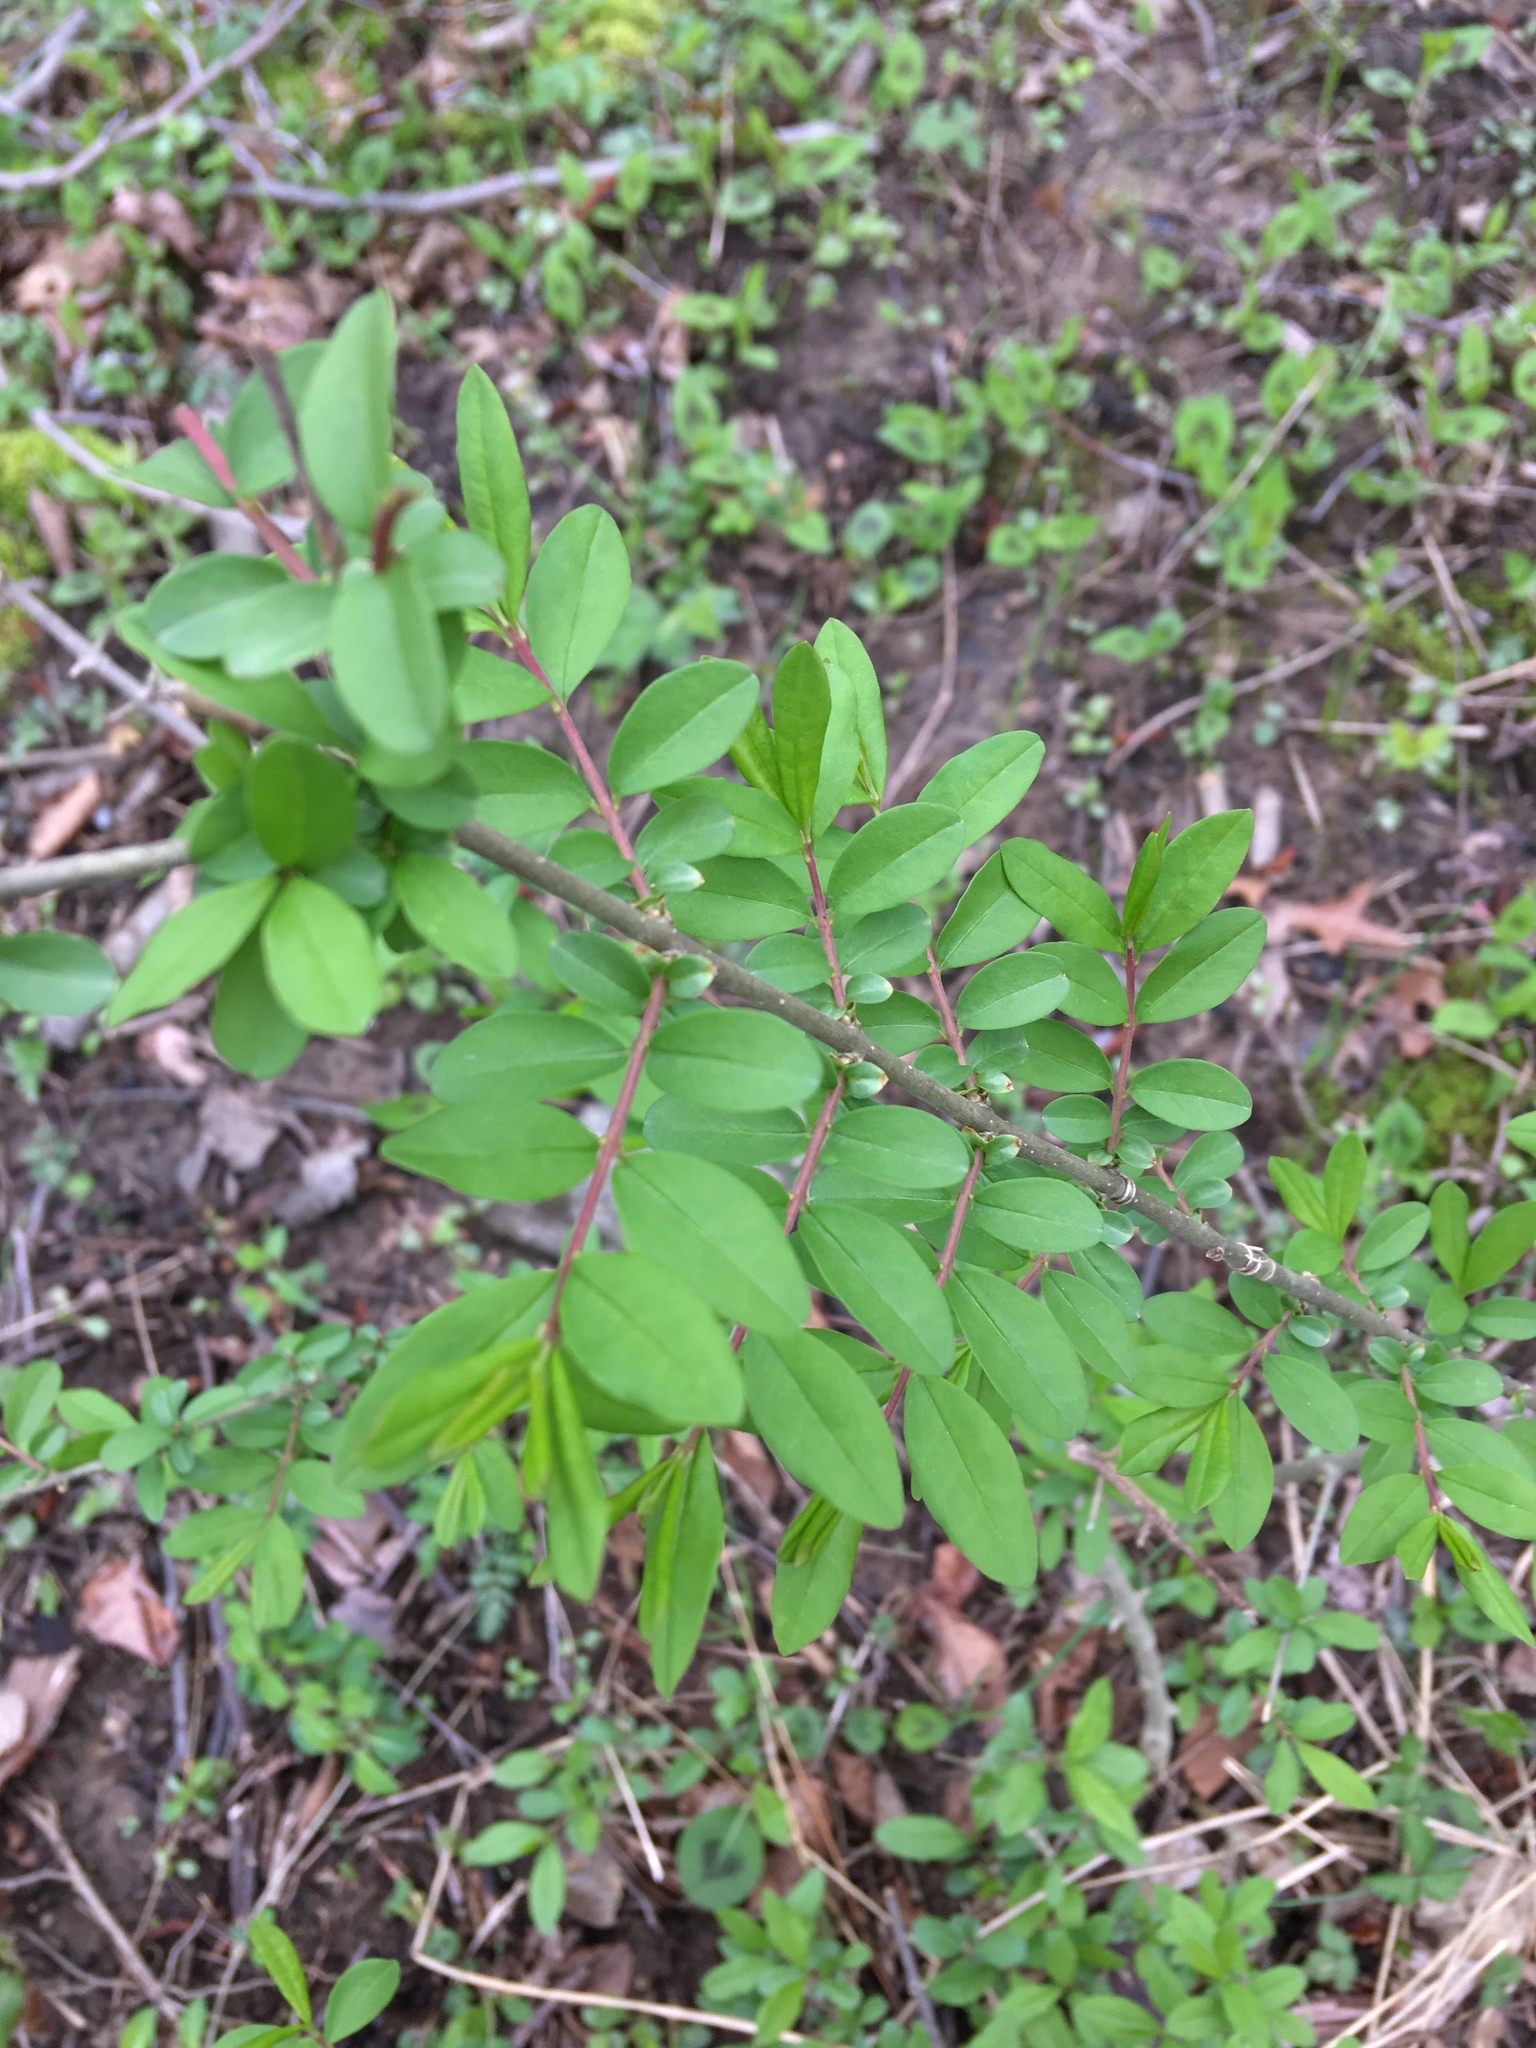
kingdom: Plantae
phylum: Tracheophyta
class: Magnoliopsida
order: Lamiales
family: Oleaceae
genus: Ligustrum
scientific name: Ligustrum obtusifolium
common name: Border privet
